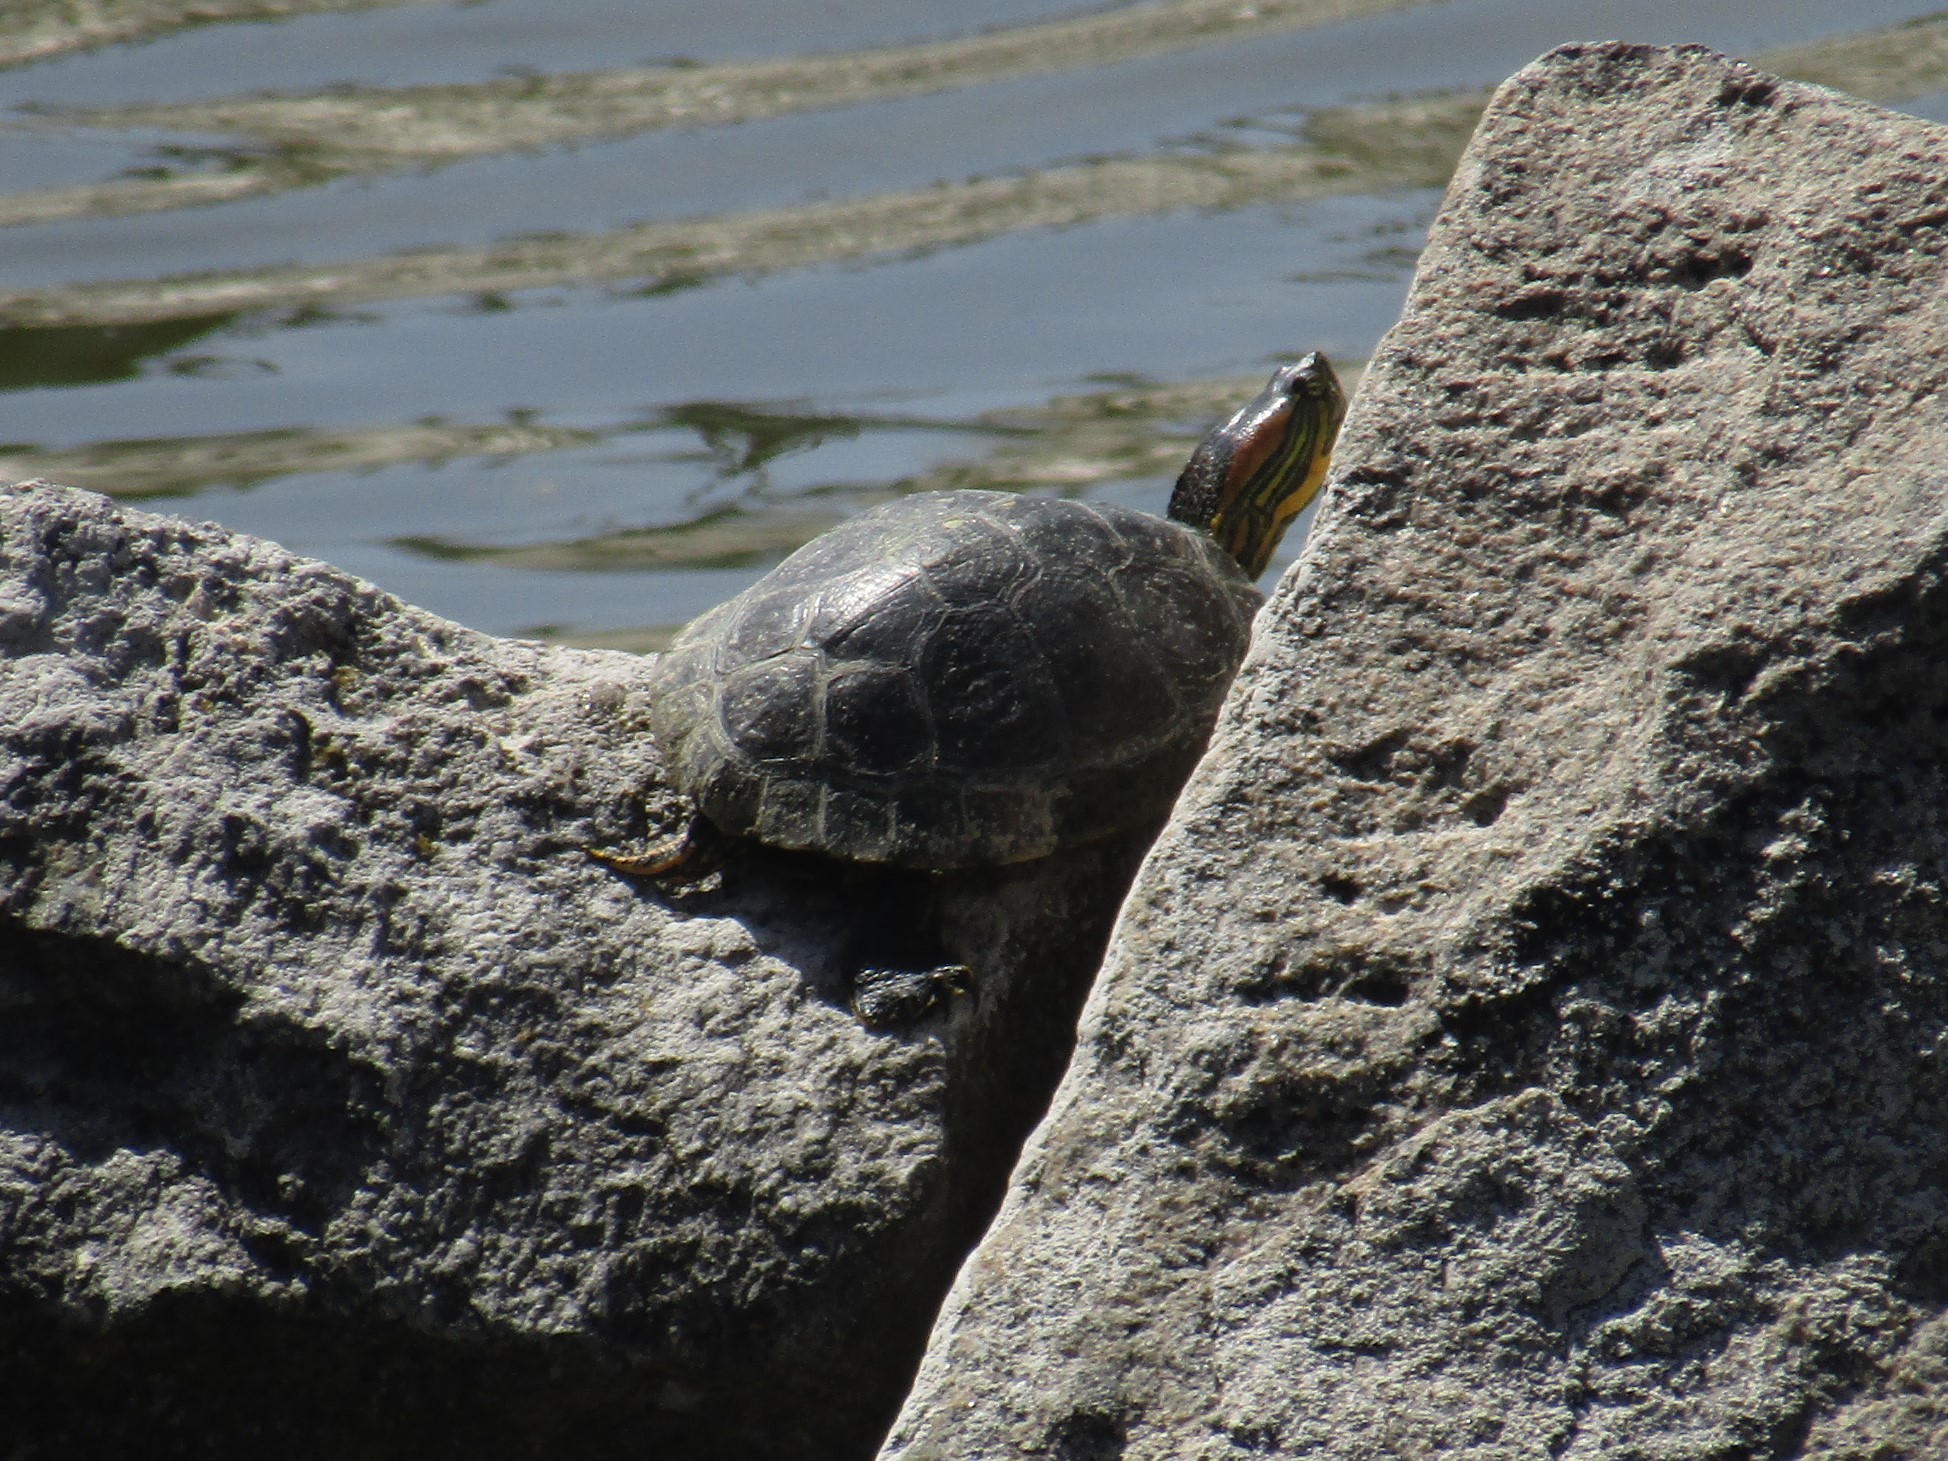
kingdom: Animalia
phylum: Chordata
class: Testudines
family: Emydidae
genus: Trachemys
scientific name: Trachemys scripta
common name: Slider
